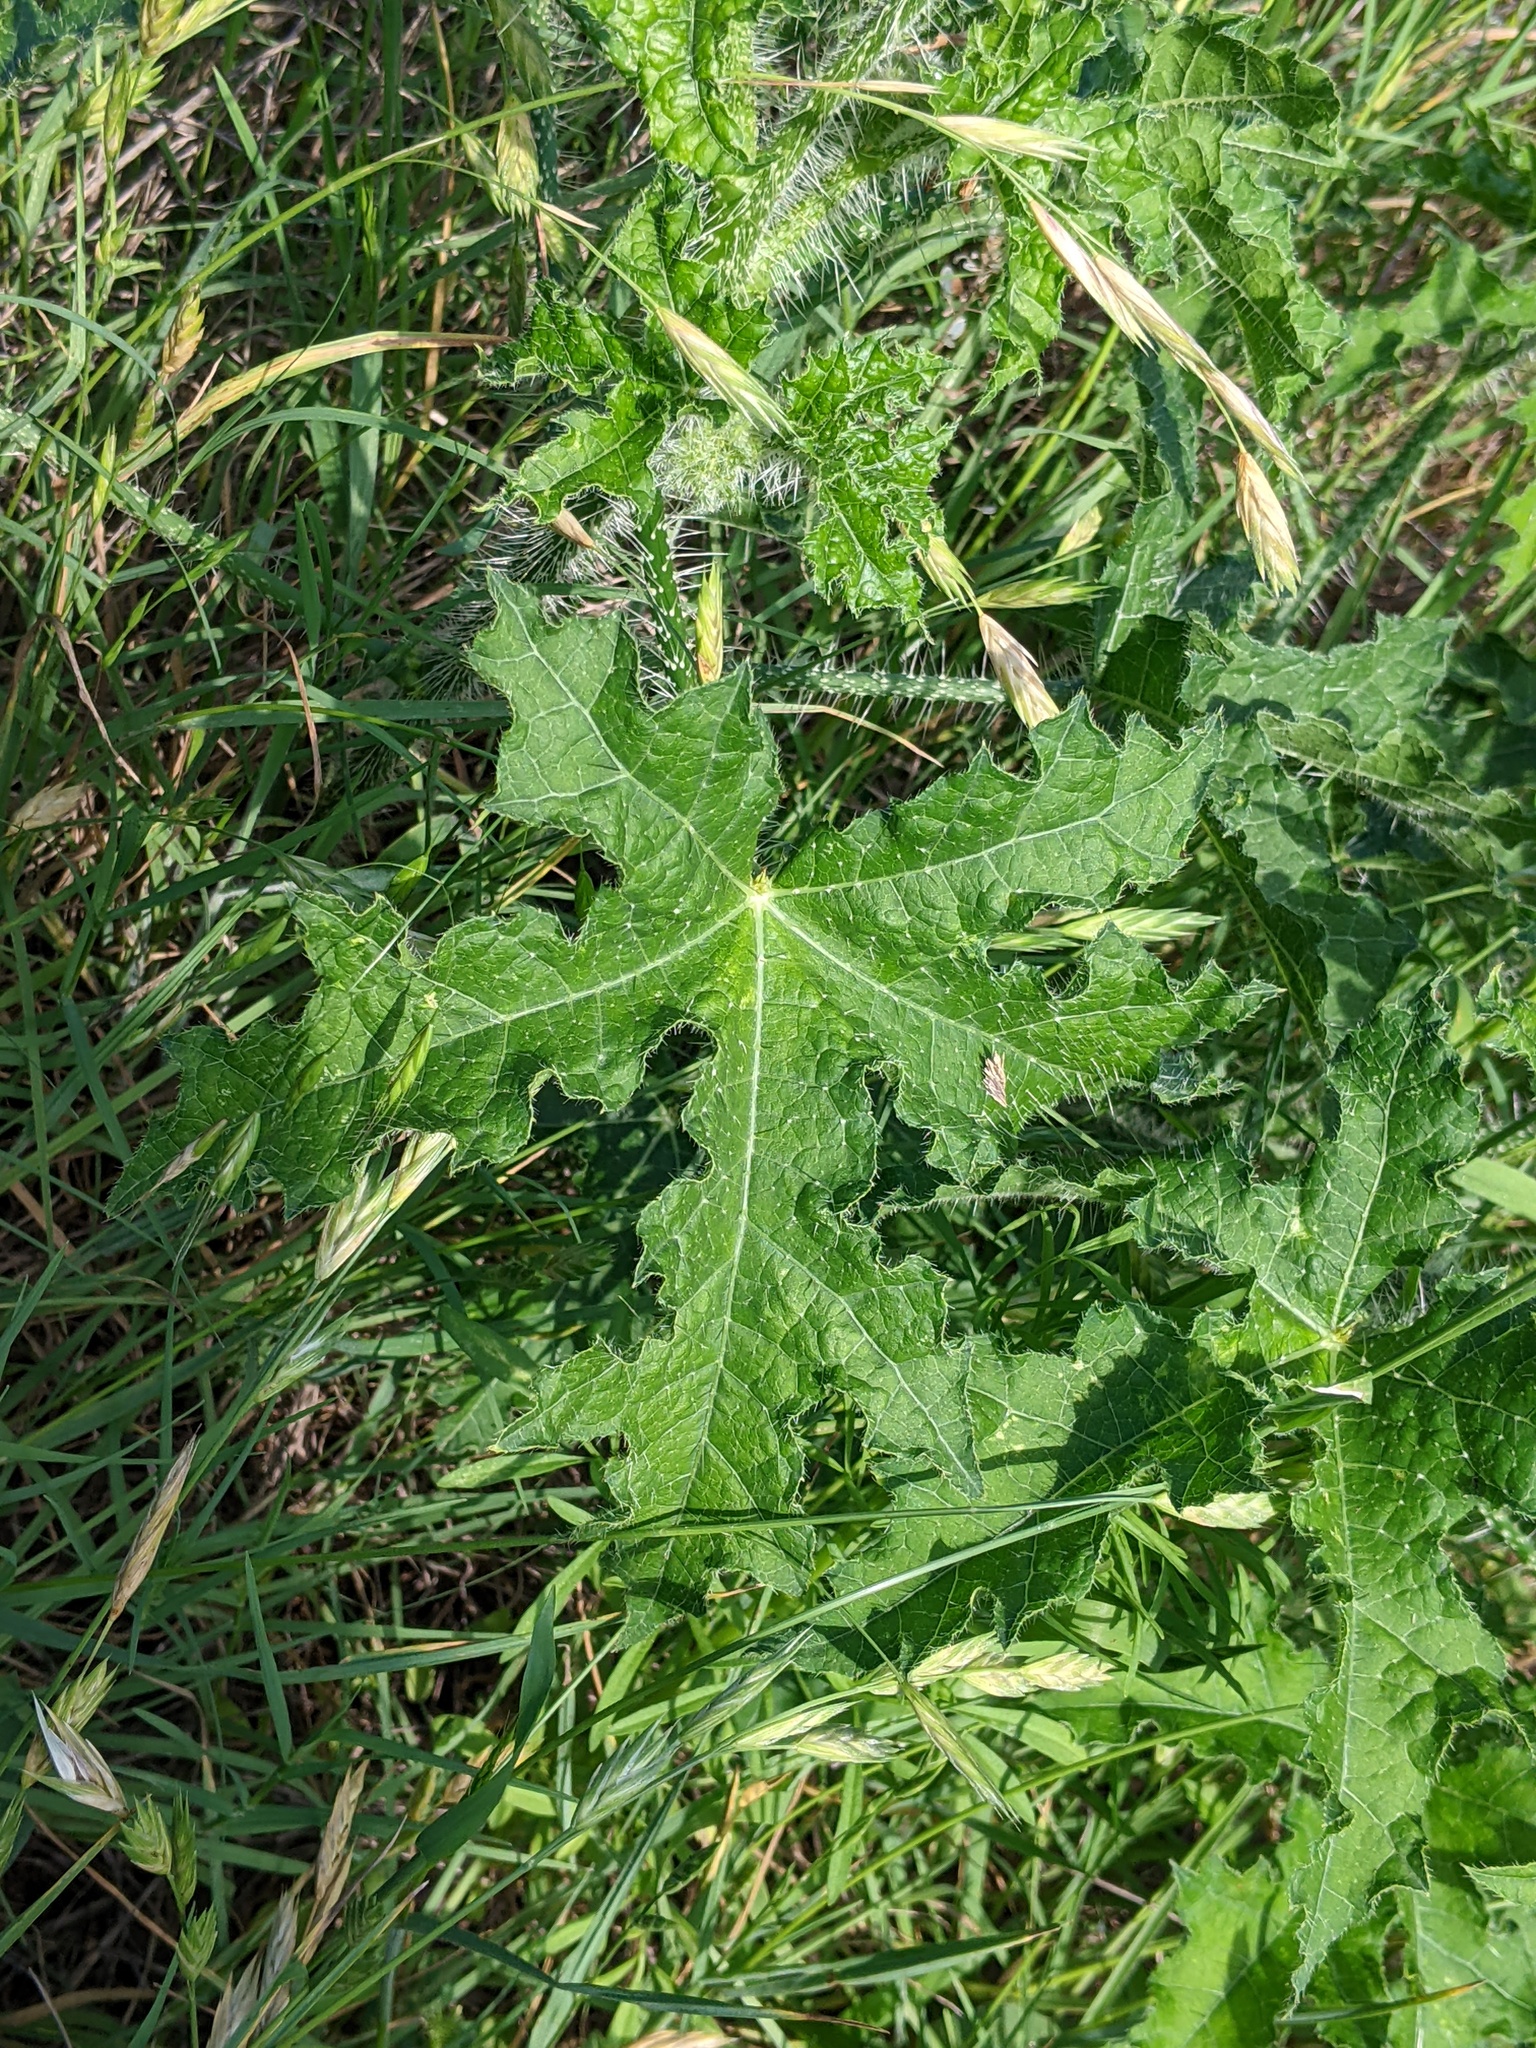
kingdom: Plantae
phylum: Tracheophyta
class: Magnoliopsida
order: Malpighiales
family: Euphorbiaceae
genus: Cnidoscolus
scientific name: Cnidoscolus texanus
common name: Texas bull-nettle
